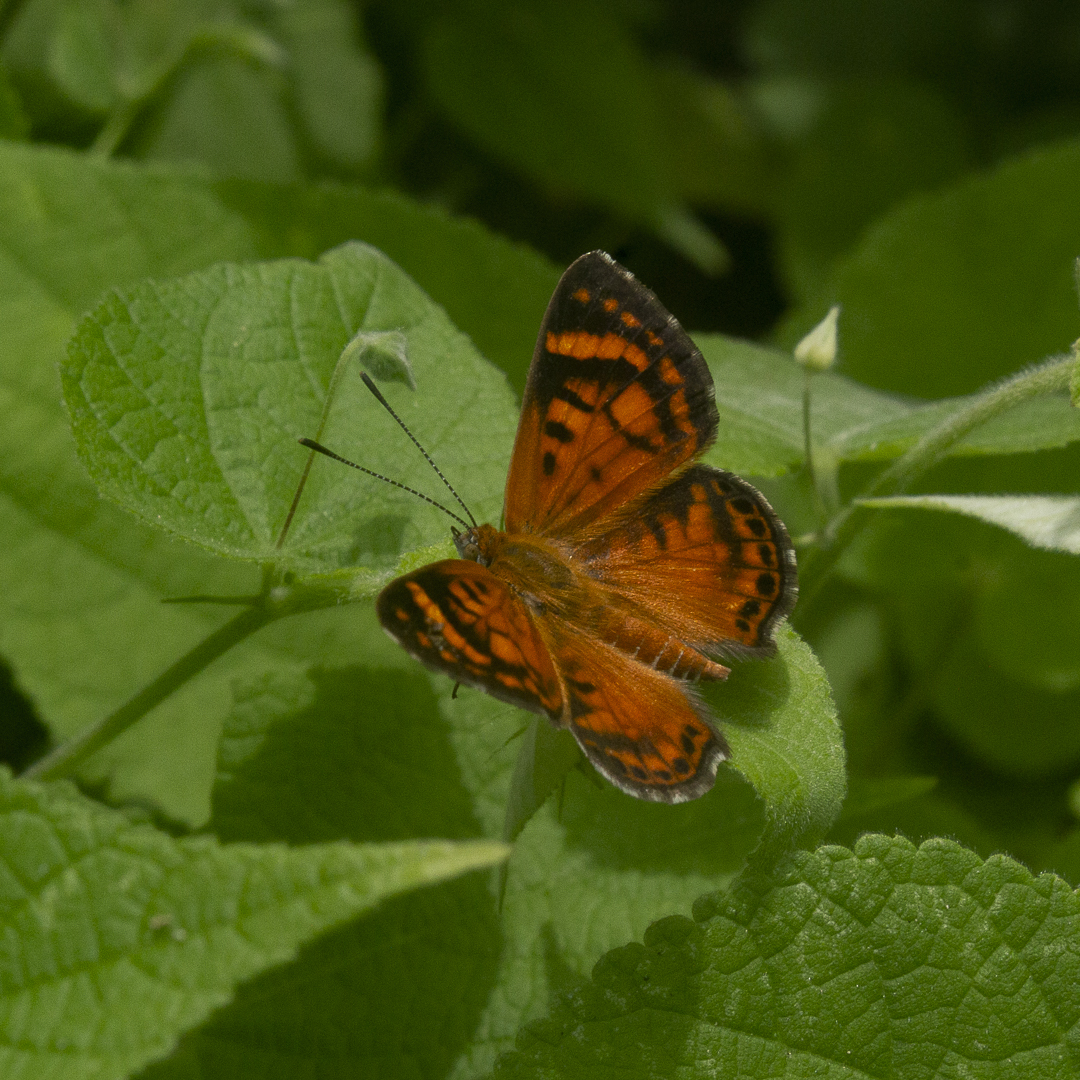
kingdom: Animalia
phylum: Arthropoda
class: Insecta
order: Lepidoptera
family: Lycaenidae
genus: Aricoris
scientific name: Aricoris erostratus
